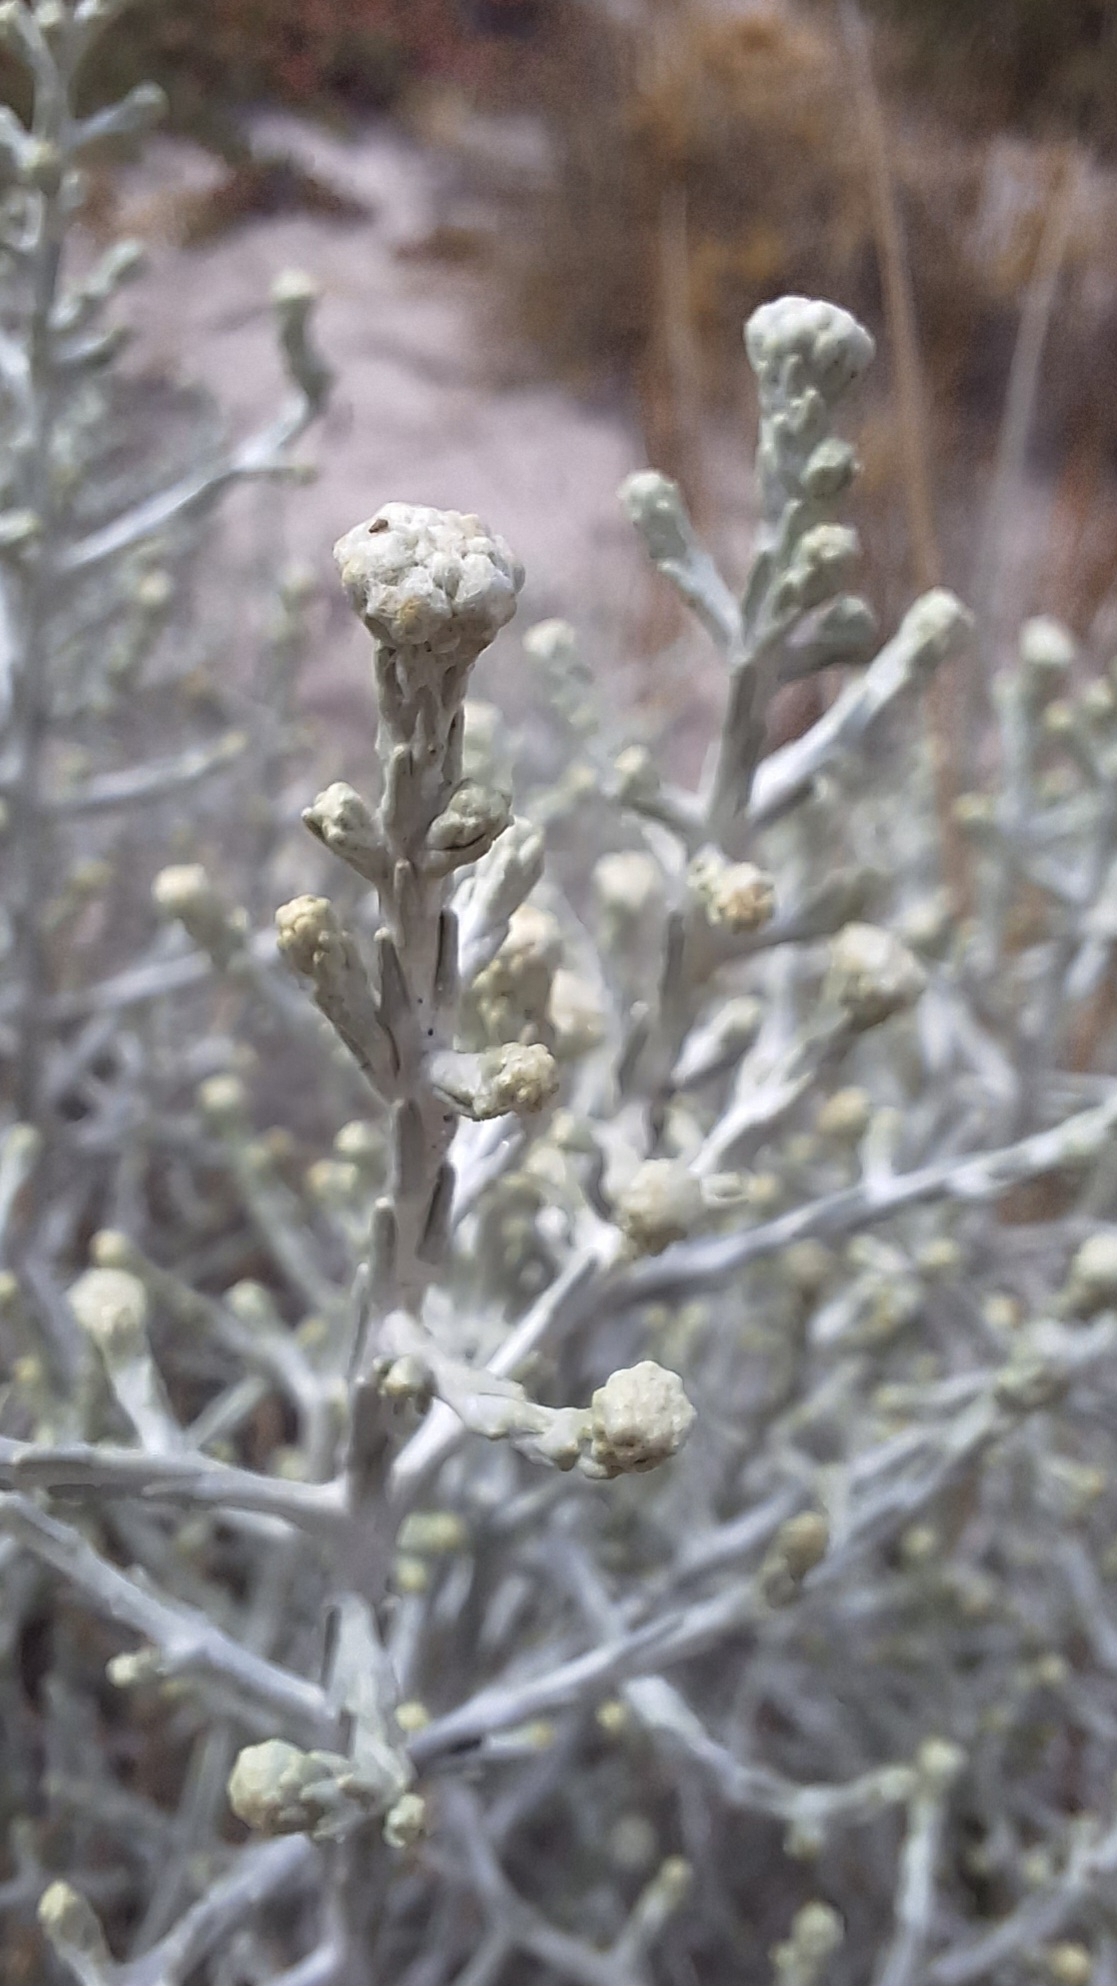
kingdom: Plantae
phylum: Tracheophyta
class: Magnoliopsida
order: Asterales
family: Asteraceae
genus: Calocephalus
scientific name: Calocephalus brownii
